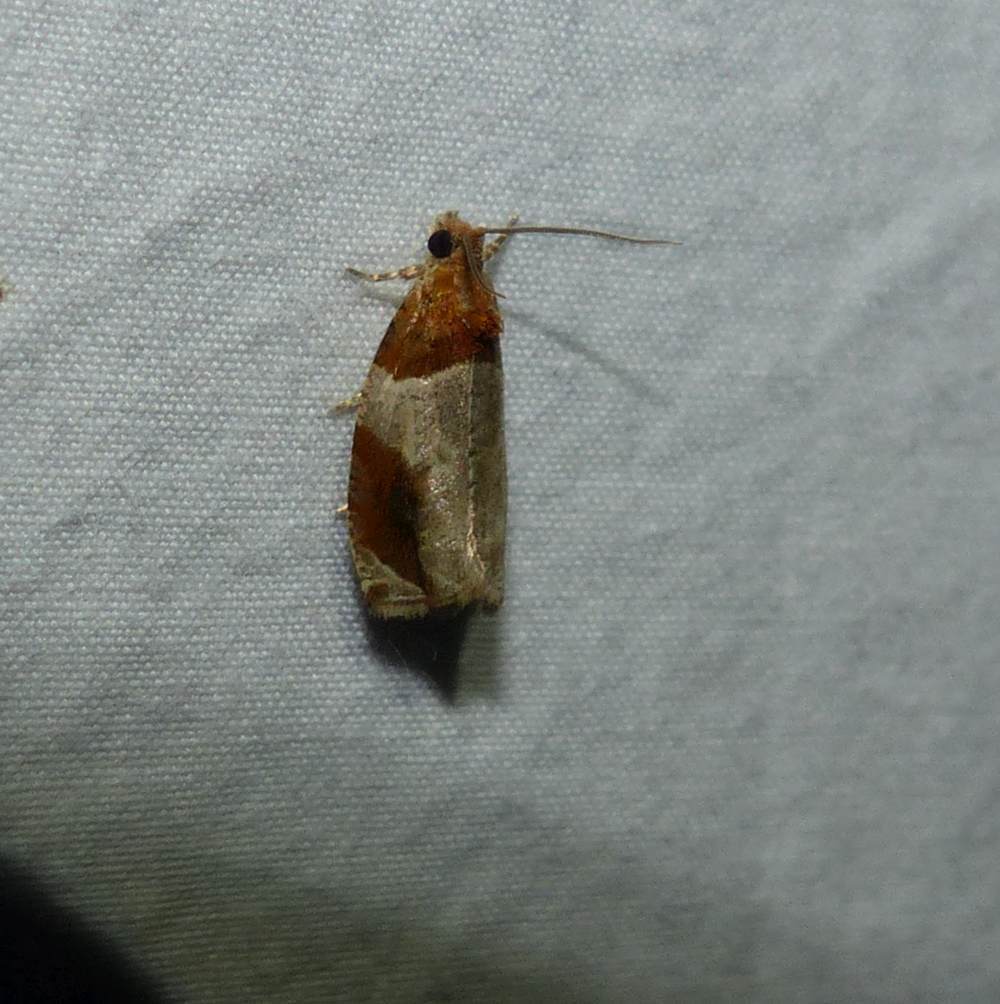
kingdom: Animalia
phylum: Arthropoda
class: Insecta
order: Lepidoptera
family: Tortricidae
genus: Olethreutes
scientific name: Olethreutes ferriferana
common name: Hydrangea leaftier moth
